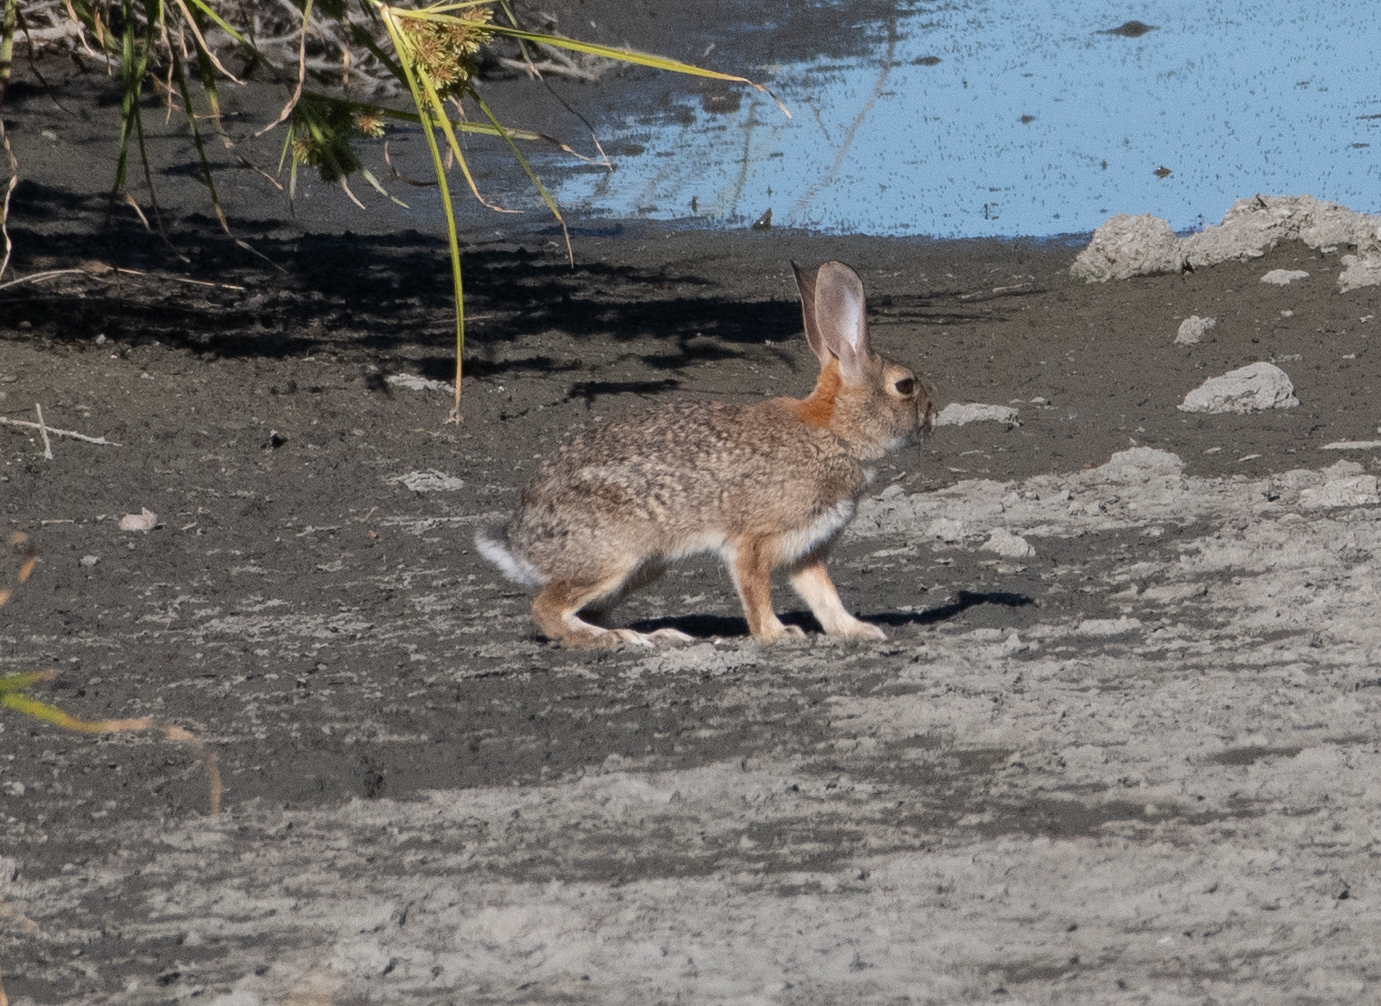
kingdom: Animalia
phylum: Chordata
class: Mammalia
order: Lagomorpha
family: Leporidae
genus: Sylvilagus
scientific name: Sylvilagus audubonii
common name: Desert cottontail
